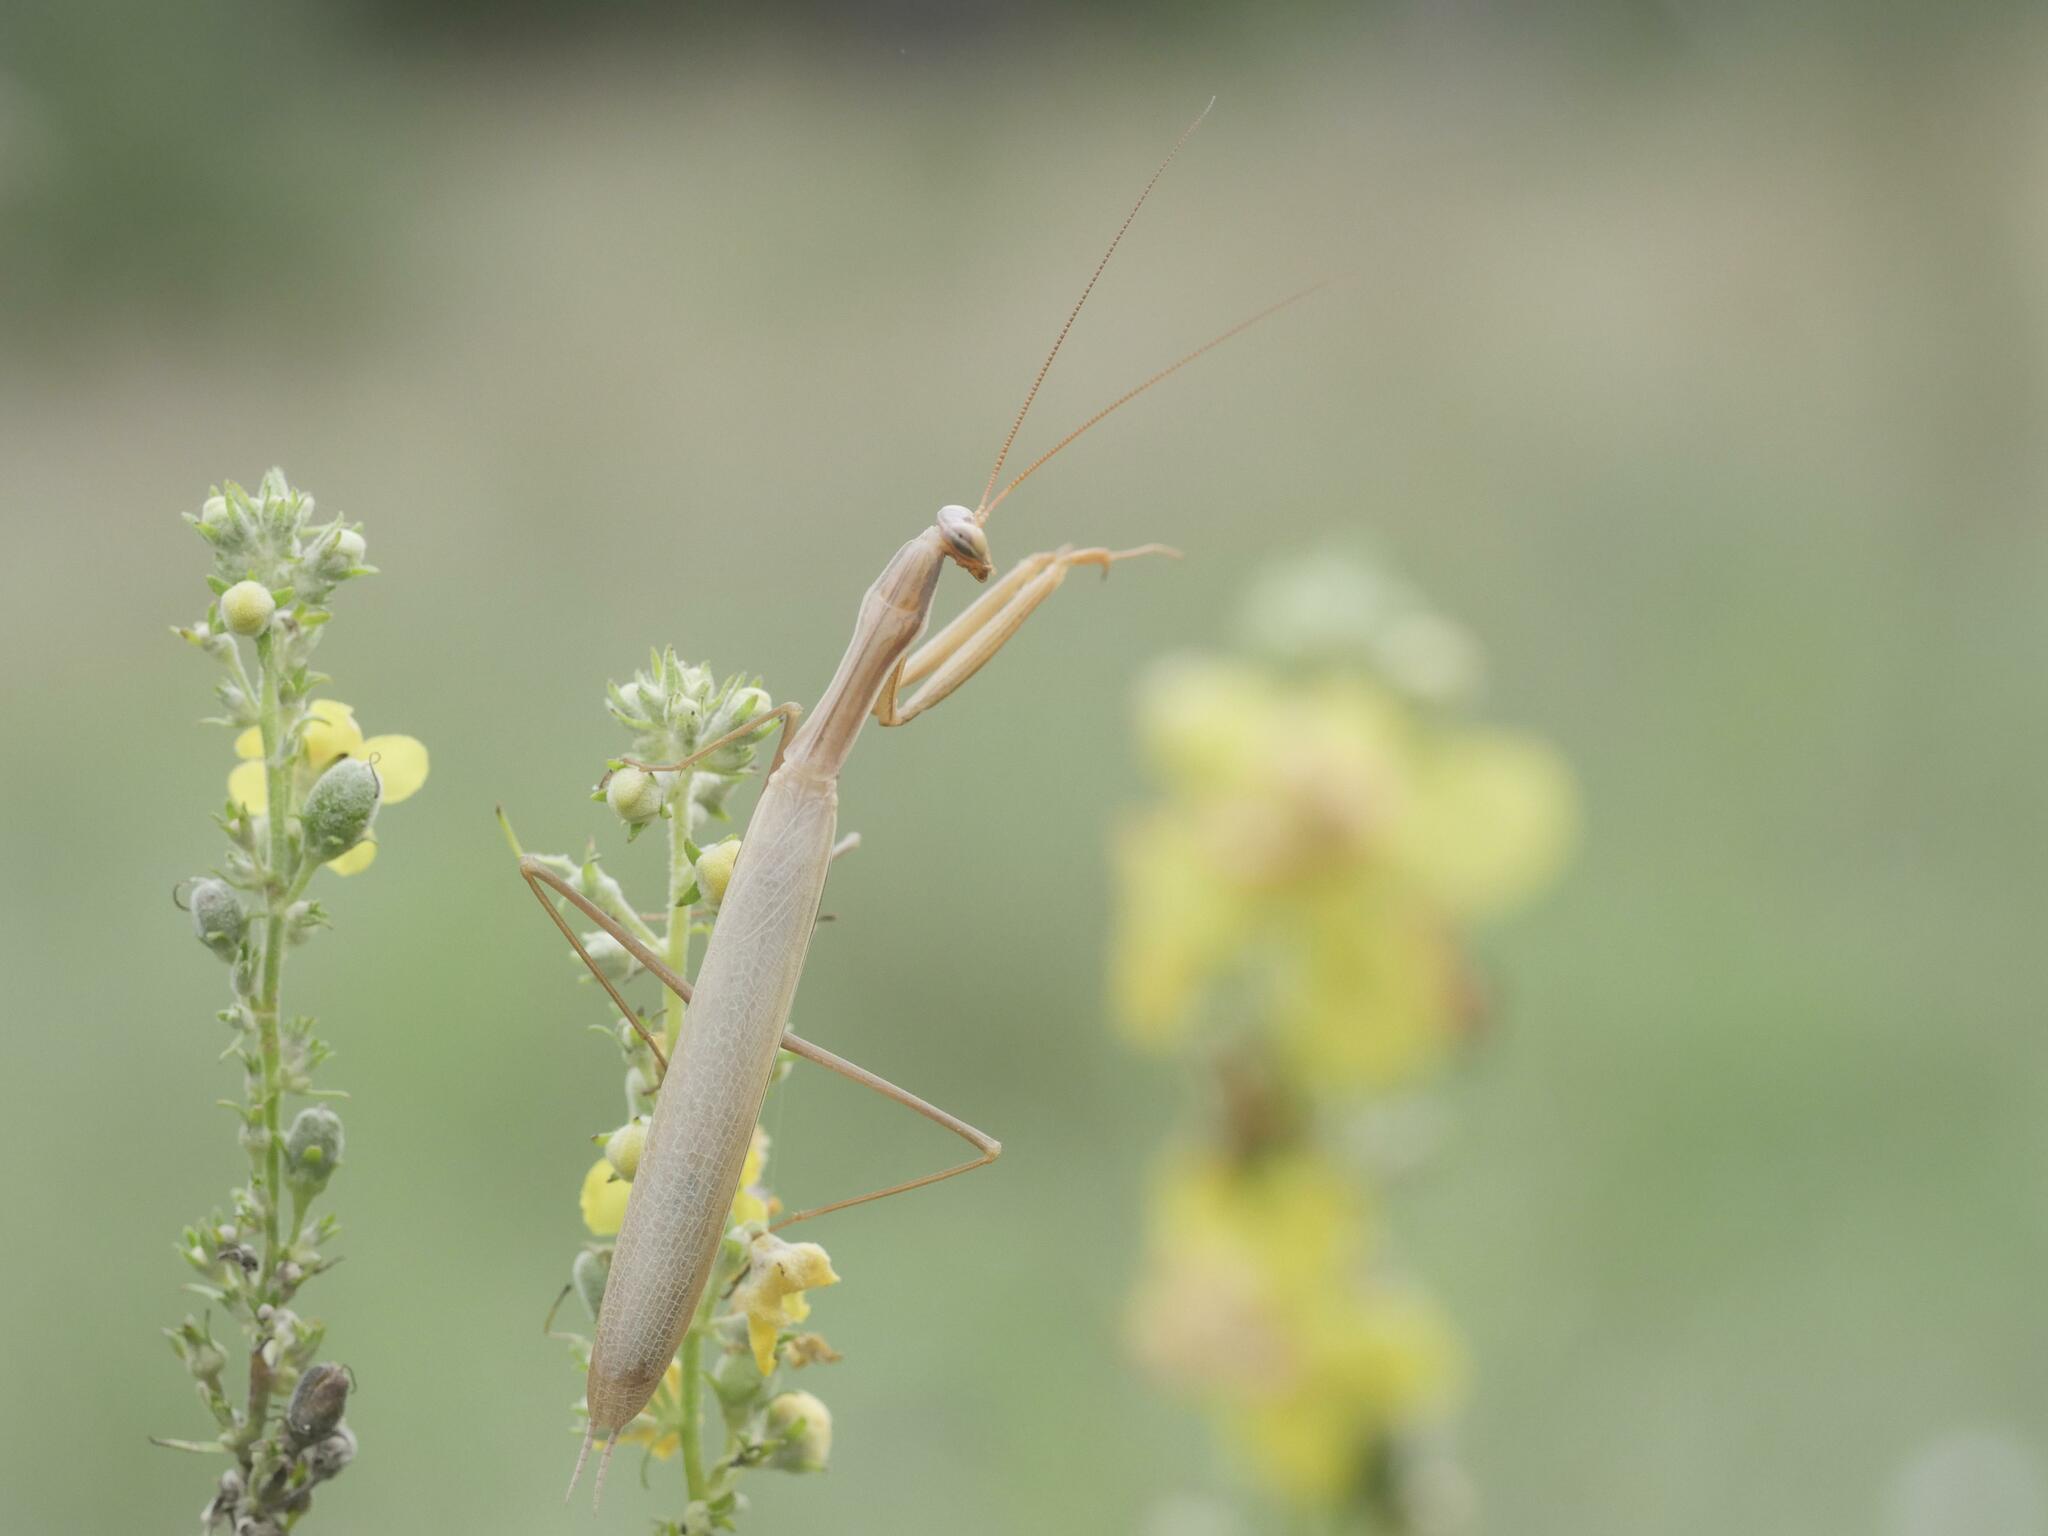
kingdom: Animalia
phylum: Arthropoda
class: Insecta
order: Mantodea
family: Mantidae
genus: Mantis
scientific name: Mantis religiosa
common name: Praying mantis
